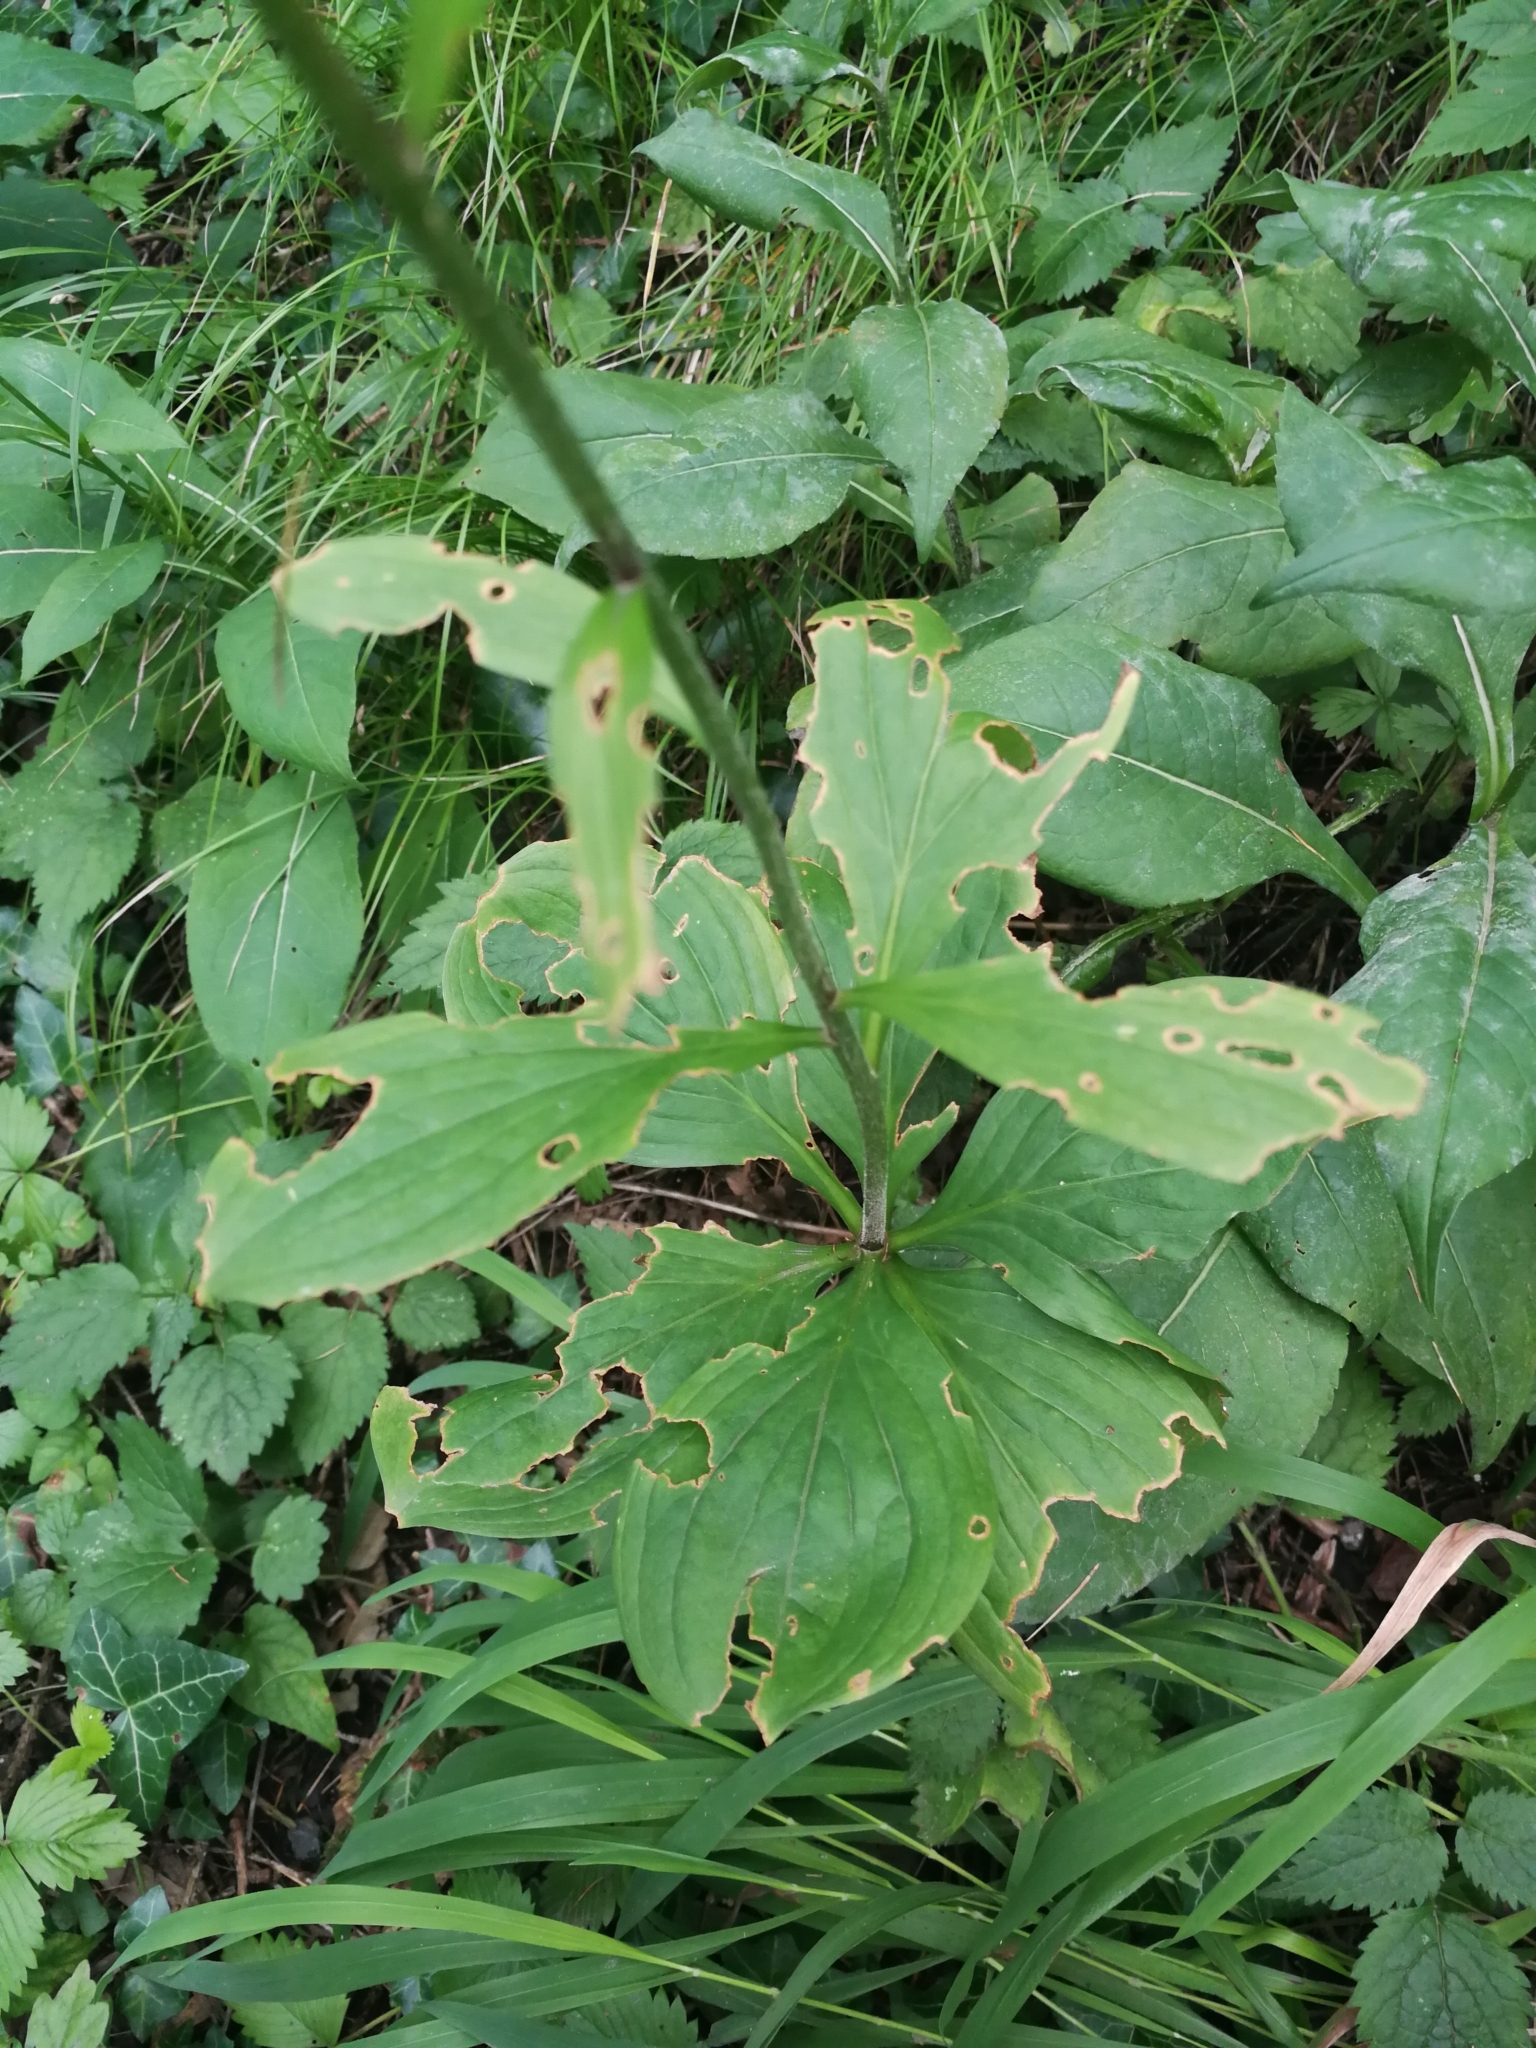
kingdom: Plantae
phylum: Tracheophyta
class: Liliopsida
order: Liliales
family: Liliaceae
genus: Lilium
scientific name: Lilium martagon
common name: Martagon lily
